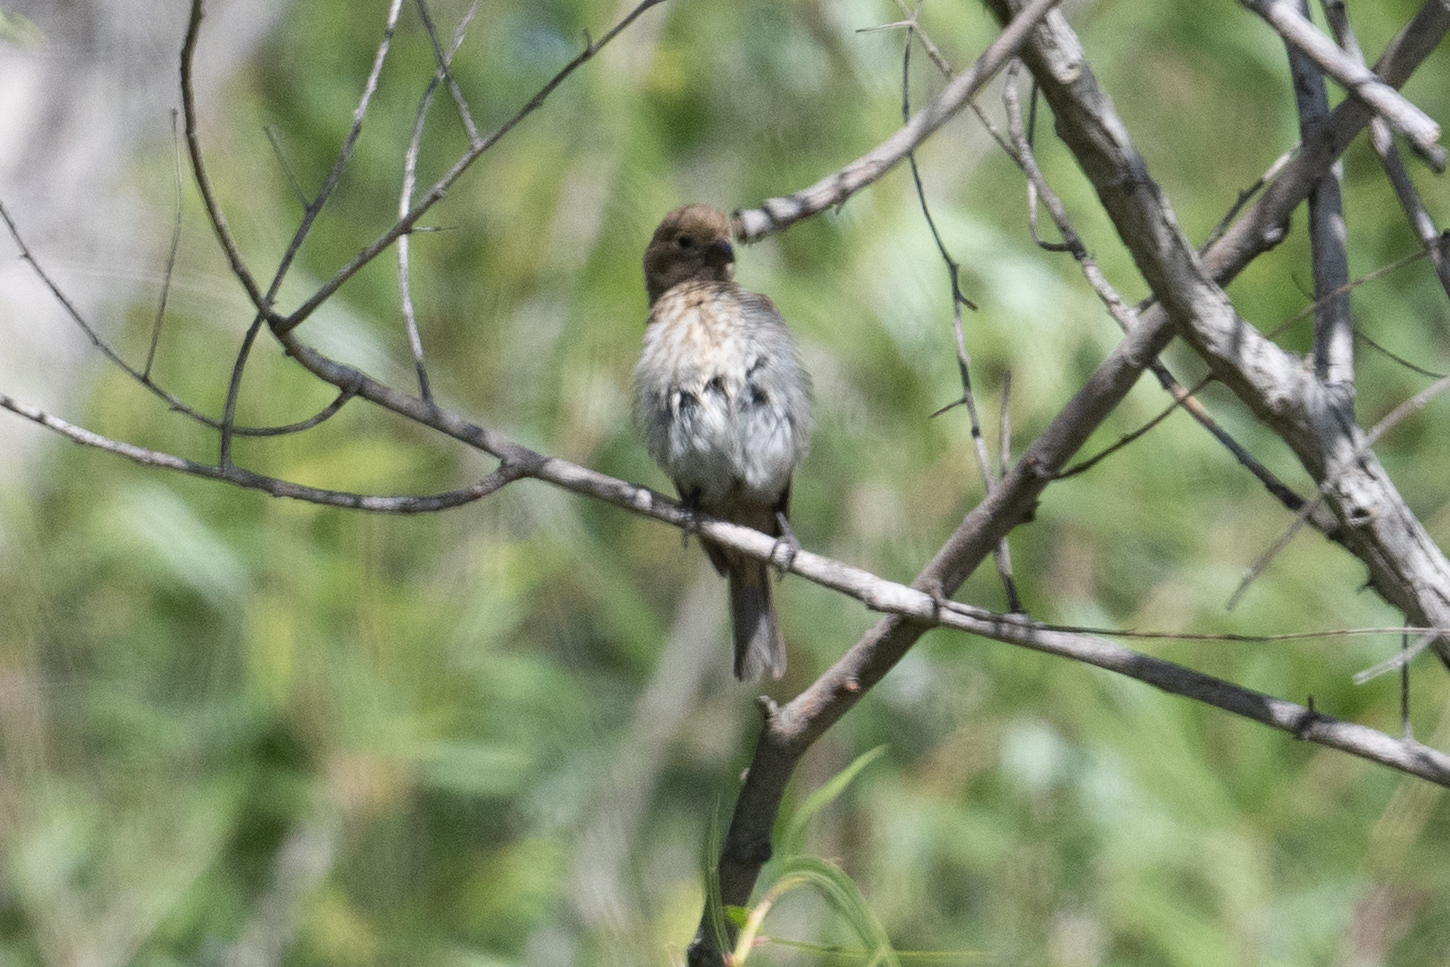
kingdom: Animalia
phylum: Chordata
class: Aves
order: Passeriformes
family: Fringillidae
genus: Haemorhous
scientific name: Haemorhous mexicanus
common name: House finch
